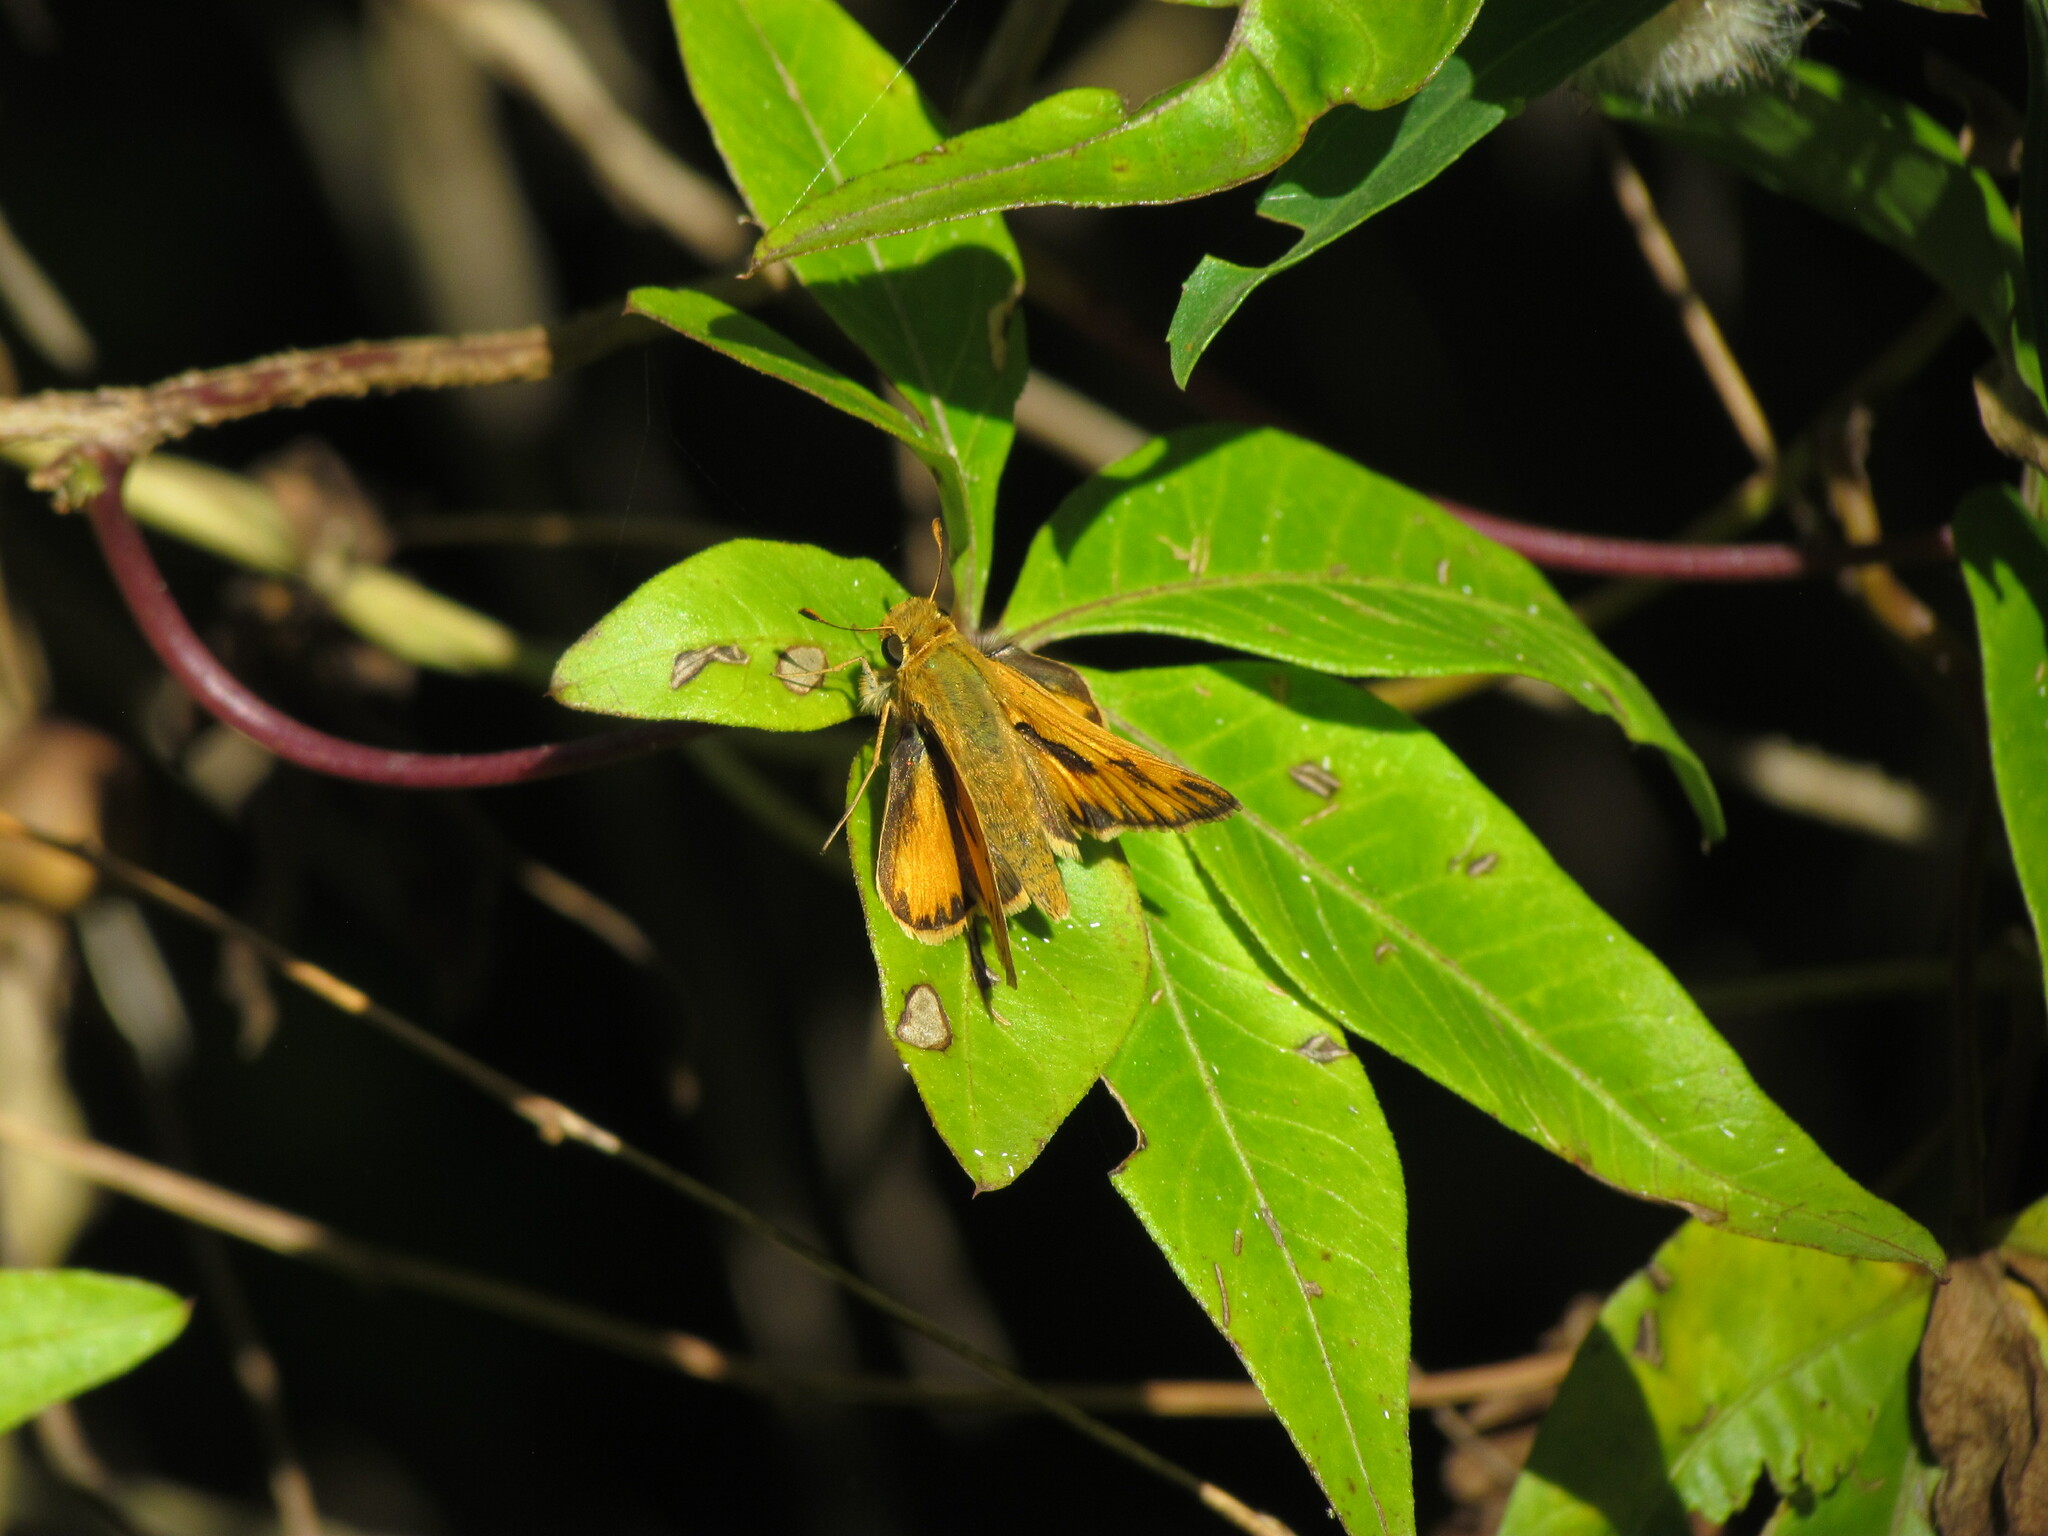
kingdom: Animalia
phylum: Arthropoda
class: Insecta
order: Lepidoptera
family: Hesperiidae
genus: Hylephila
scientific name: Hylephila phyleus
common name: Fiery skipper
